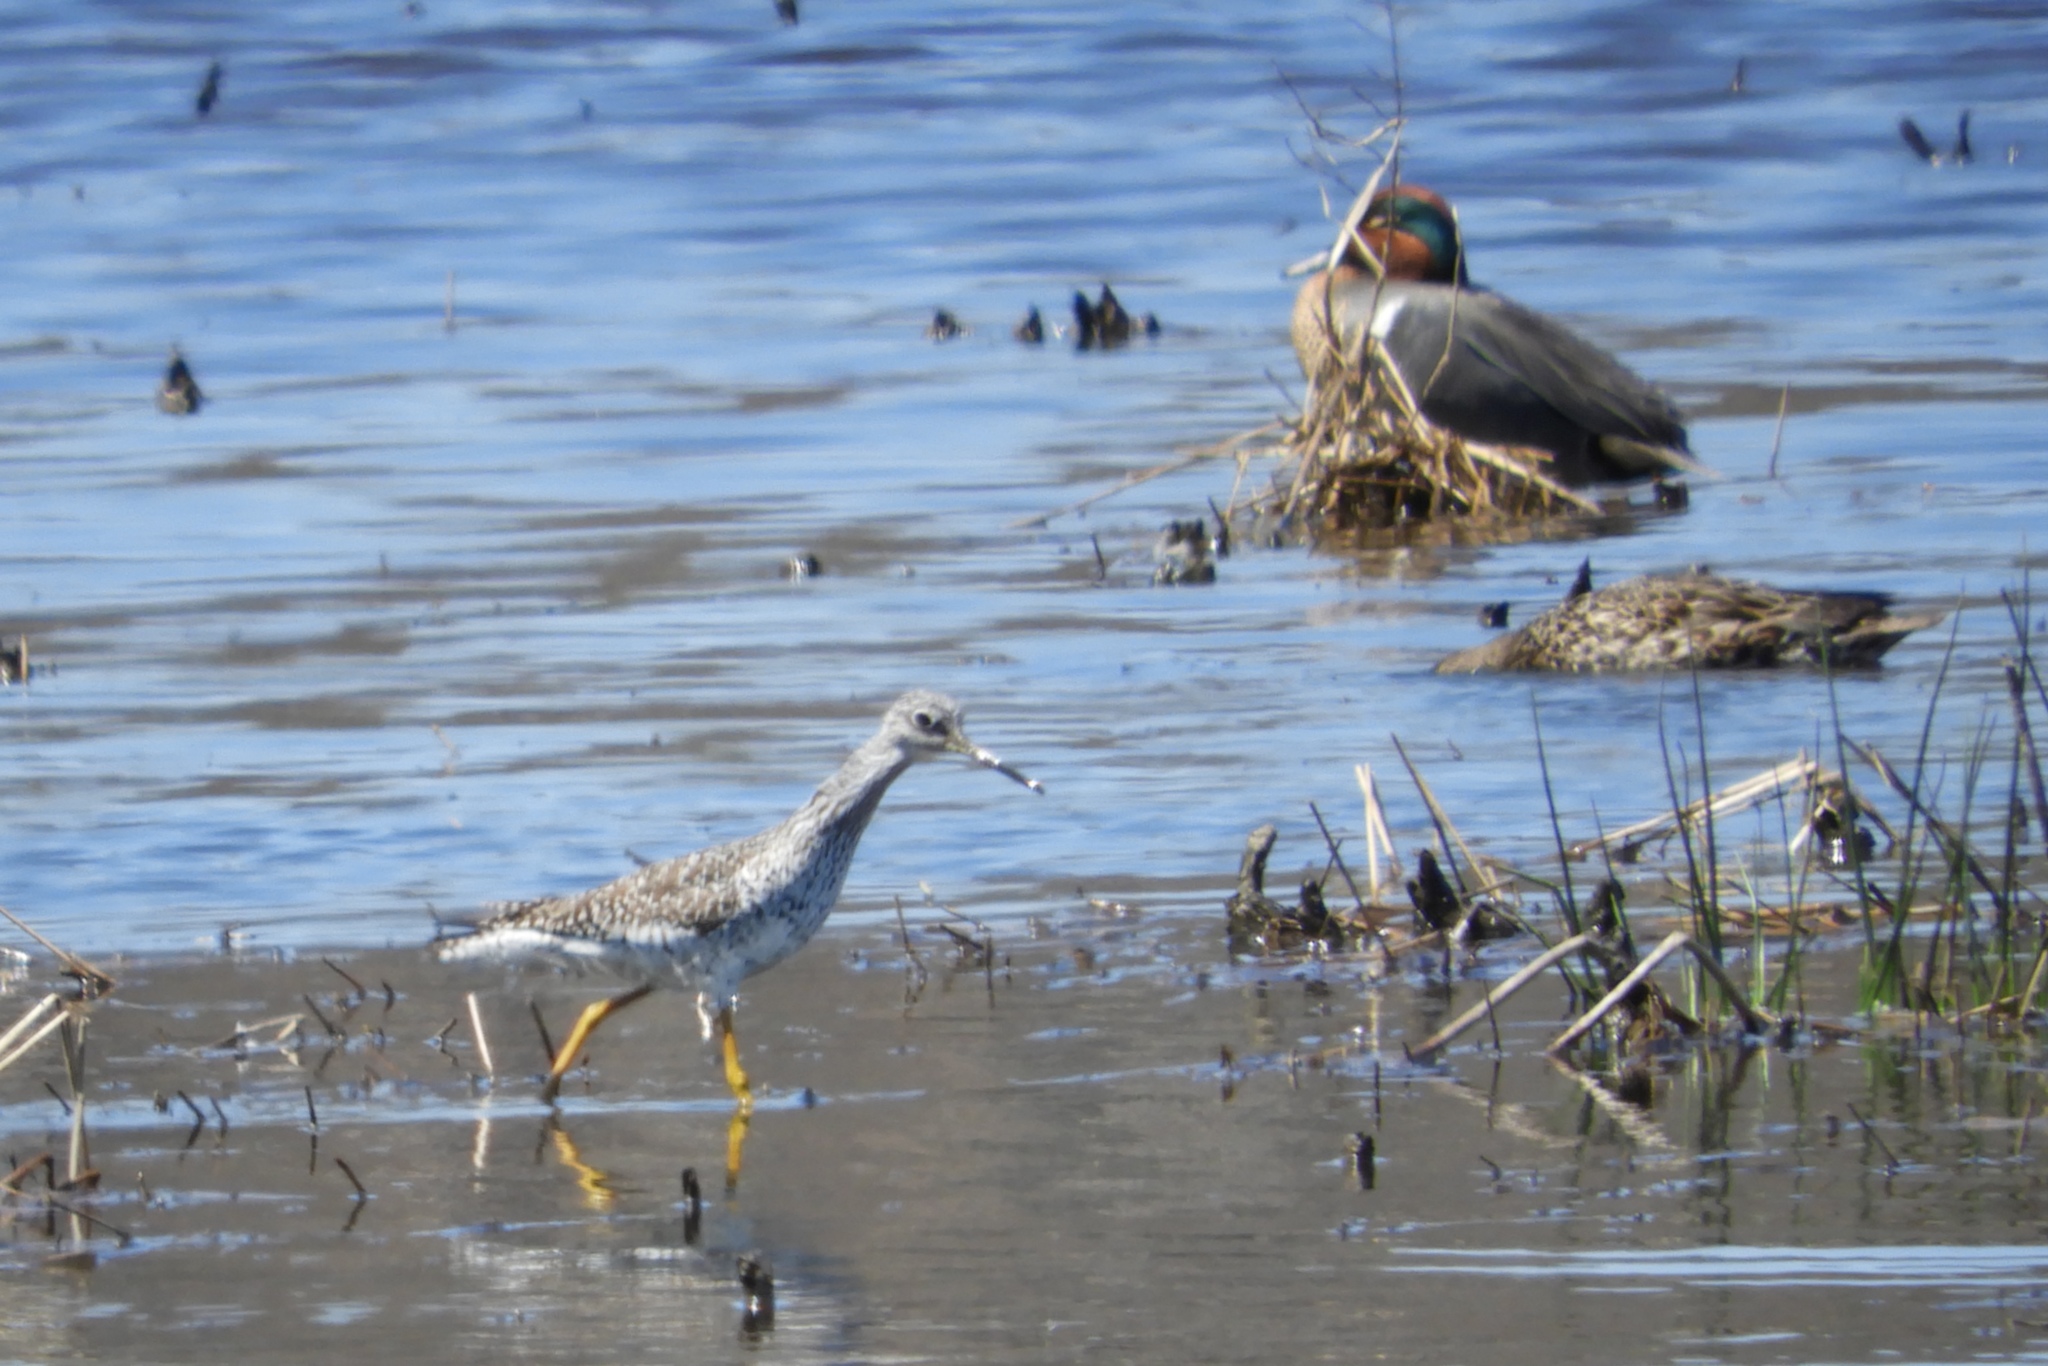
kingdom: Animalia
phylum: Chordata
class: Aves
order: Charadriiformes
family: Scolopacidae
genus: Tringa
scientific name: Tringa melanoleuca
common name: Greater yellowlegs
